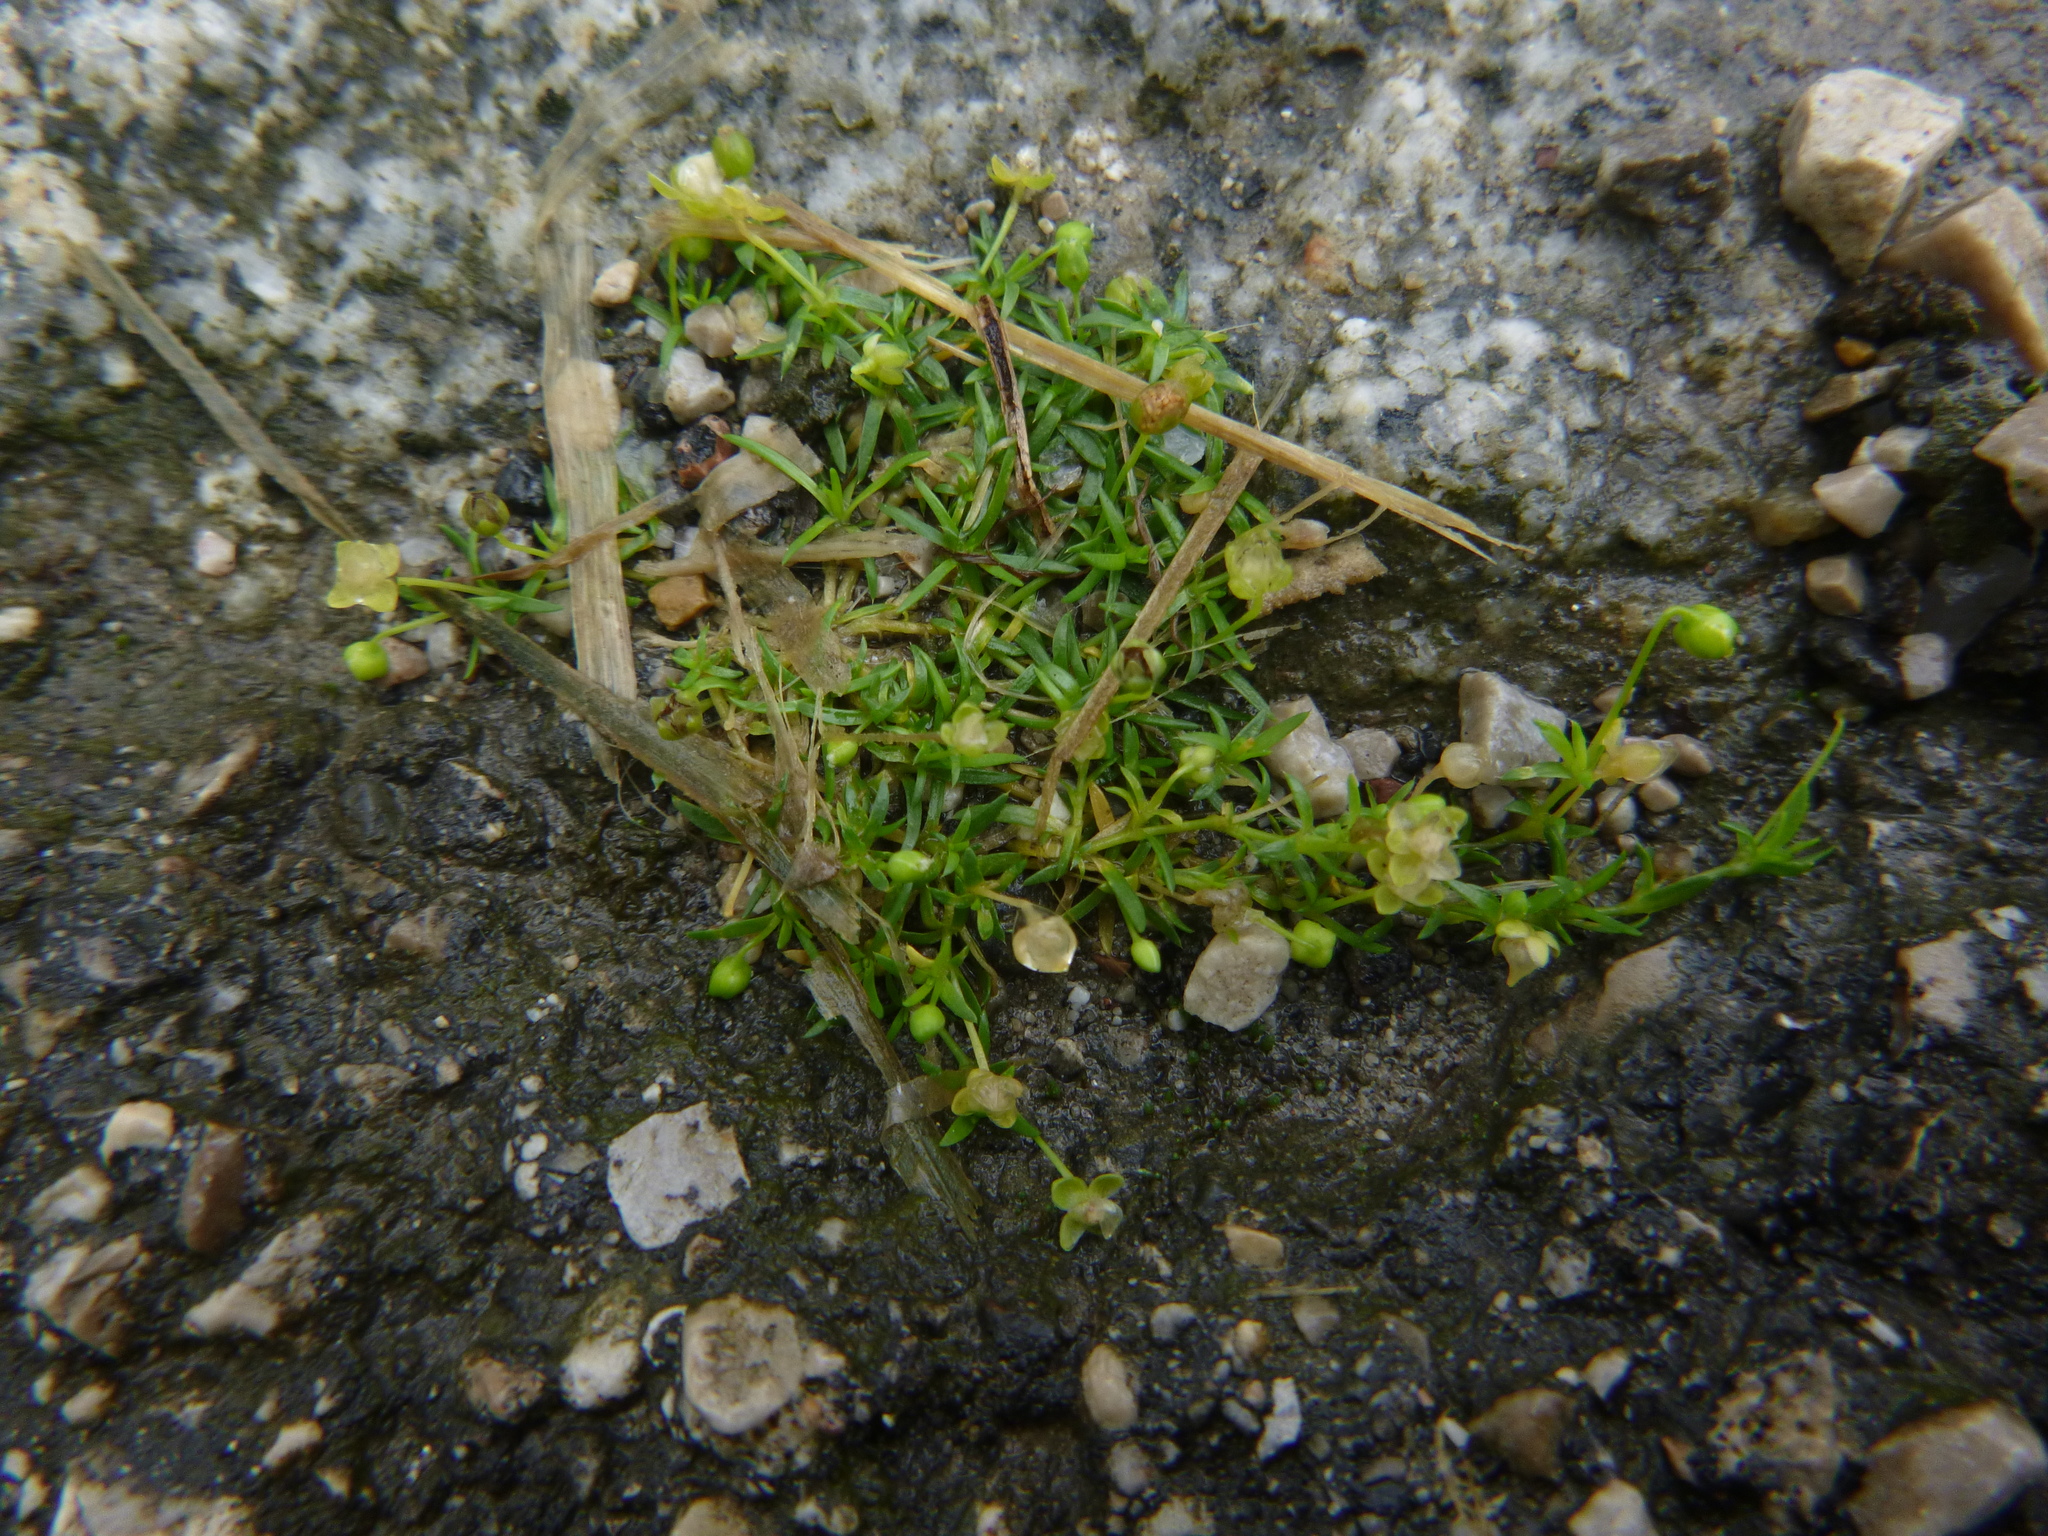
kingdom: Plantae
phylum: Tracheophyta
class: Magnoliopsida
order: Caryophyllales
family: Caryophyllaceae
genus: Sagina
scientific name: Sagina procumbens
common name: Procumbent pearlwort
